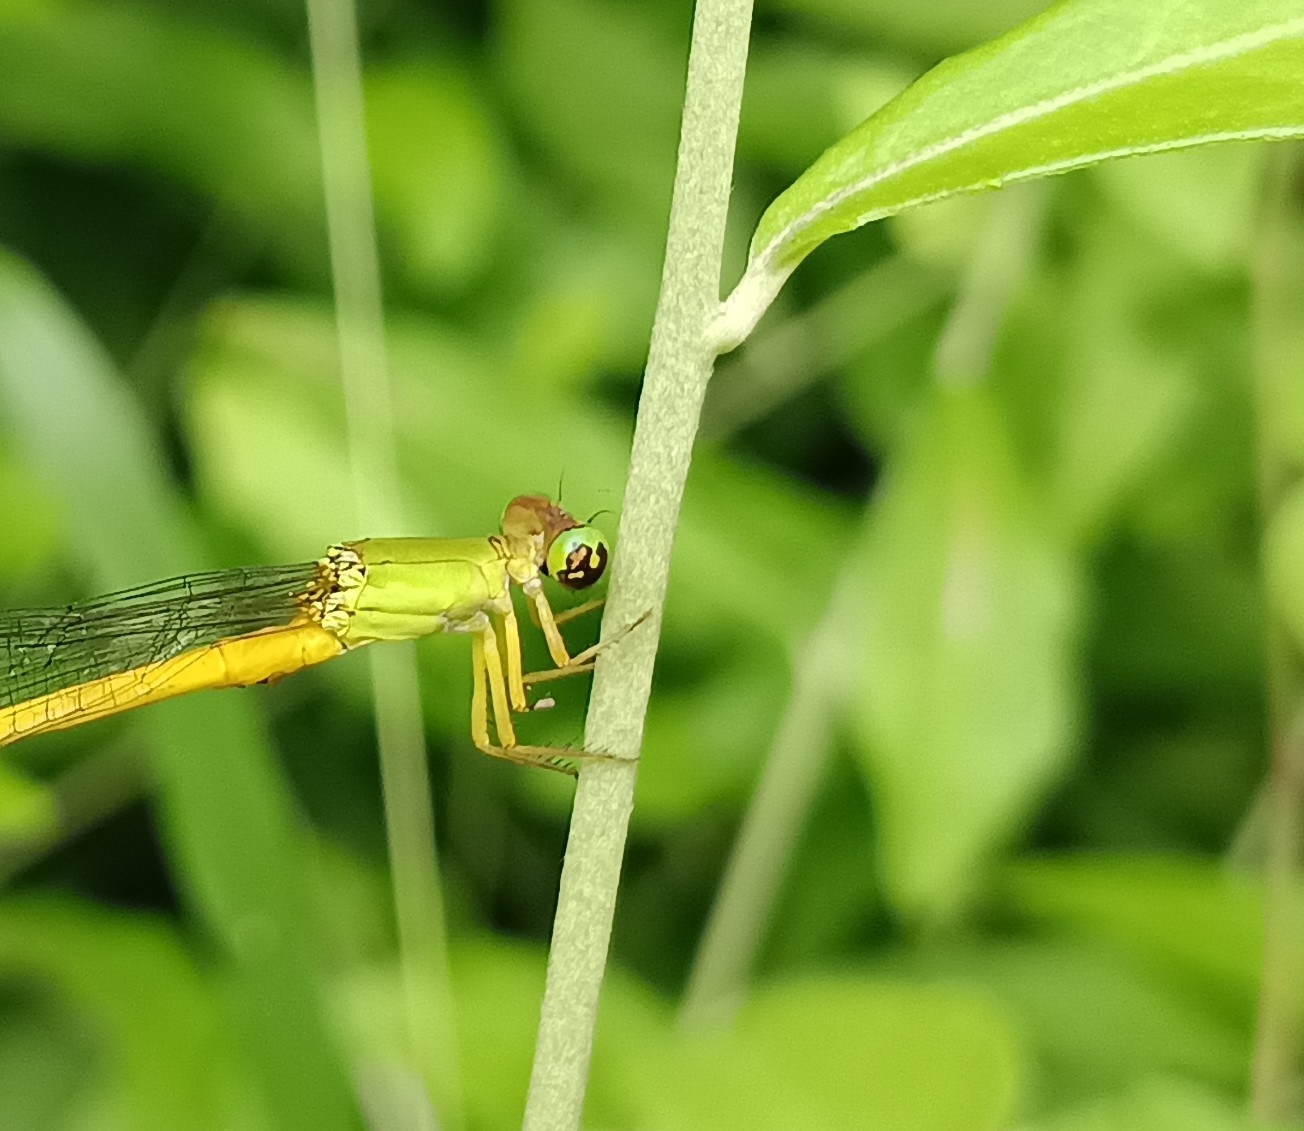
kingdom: Animalia
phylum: Arthropoda
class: Insecta
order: Odonata
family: Coenagrionidae
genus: Ceriagrion
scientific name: Ceriagrion coromandelianum
